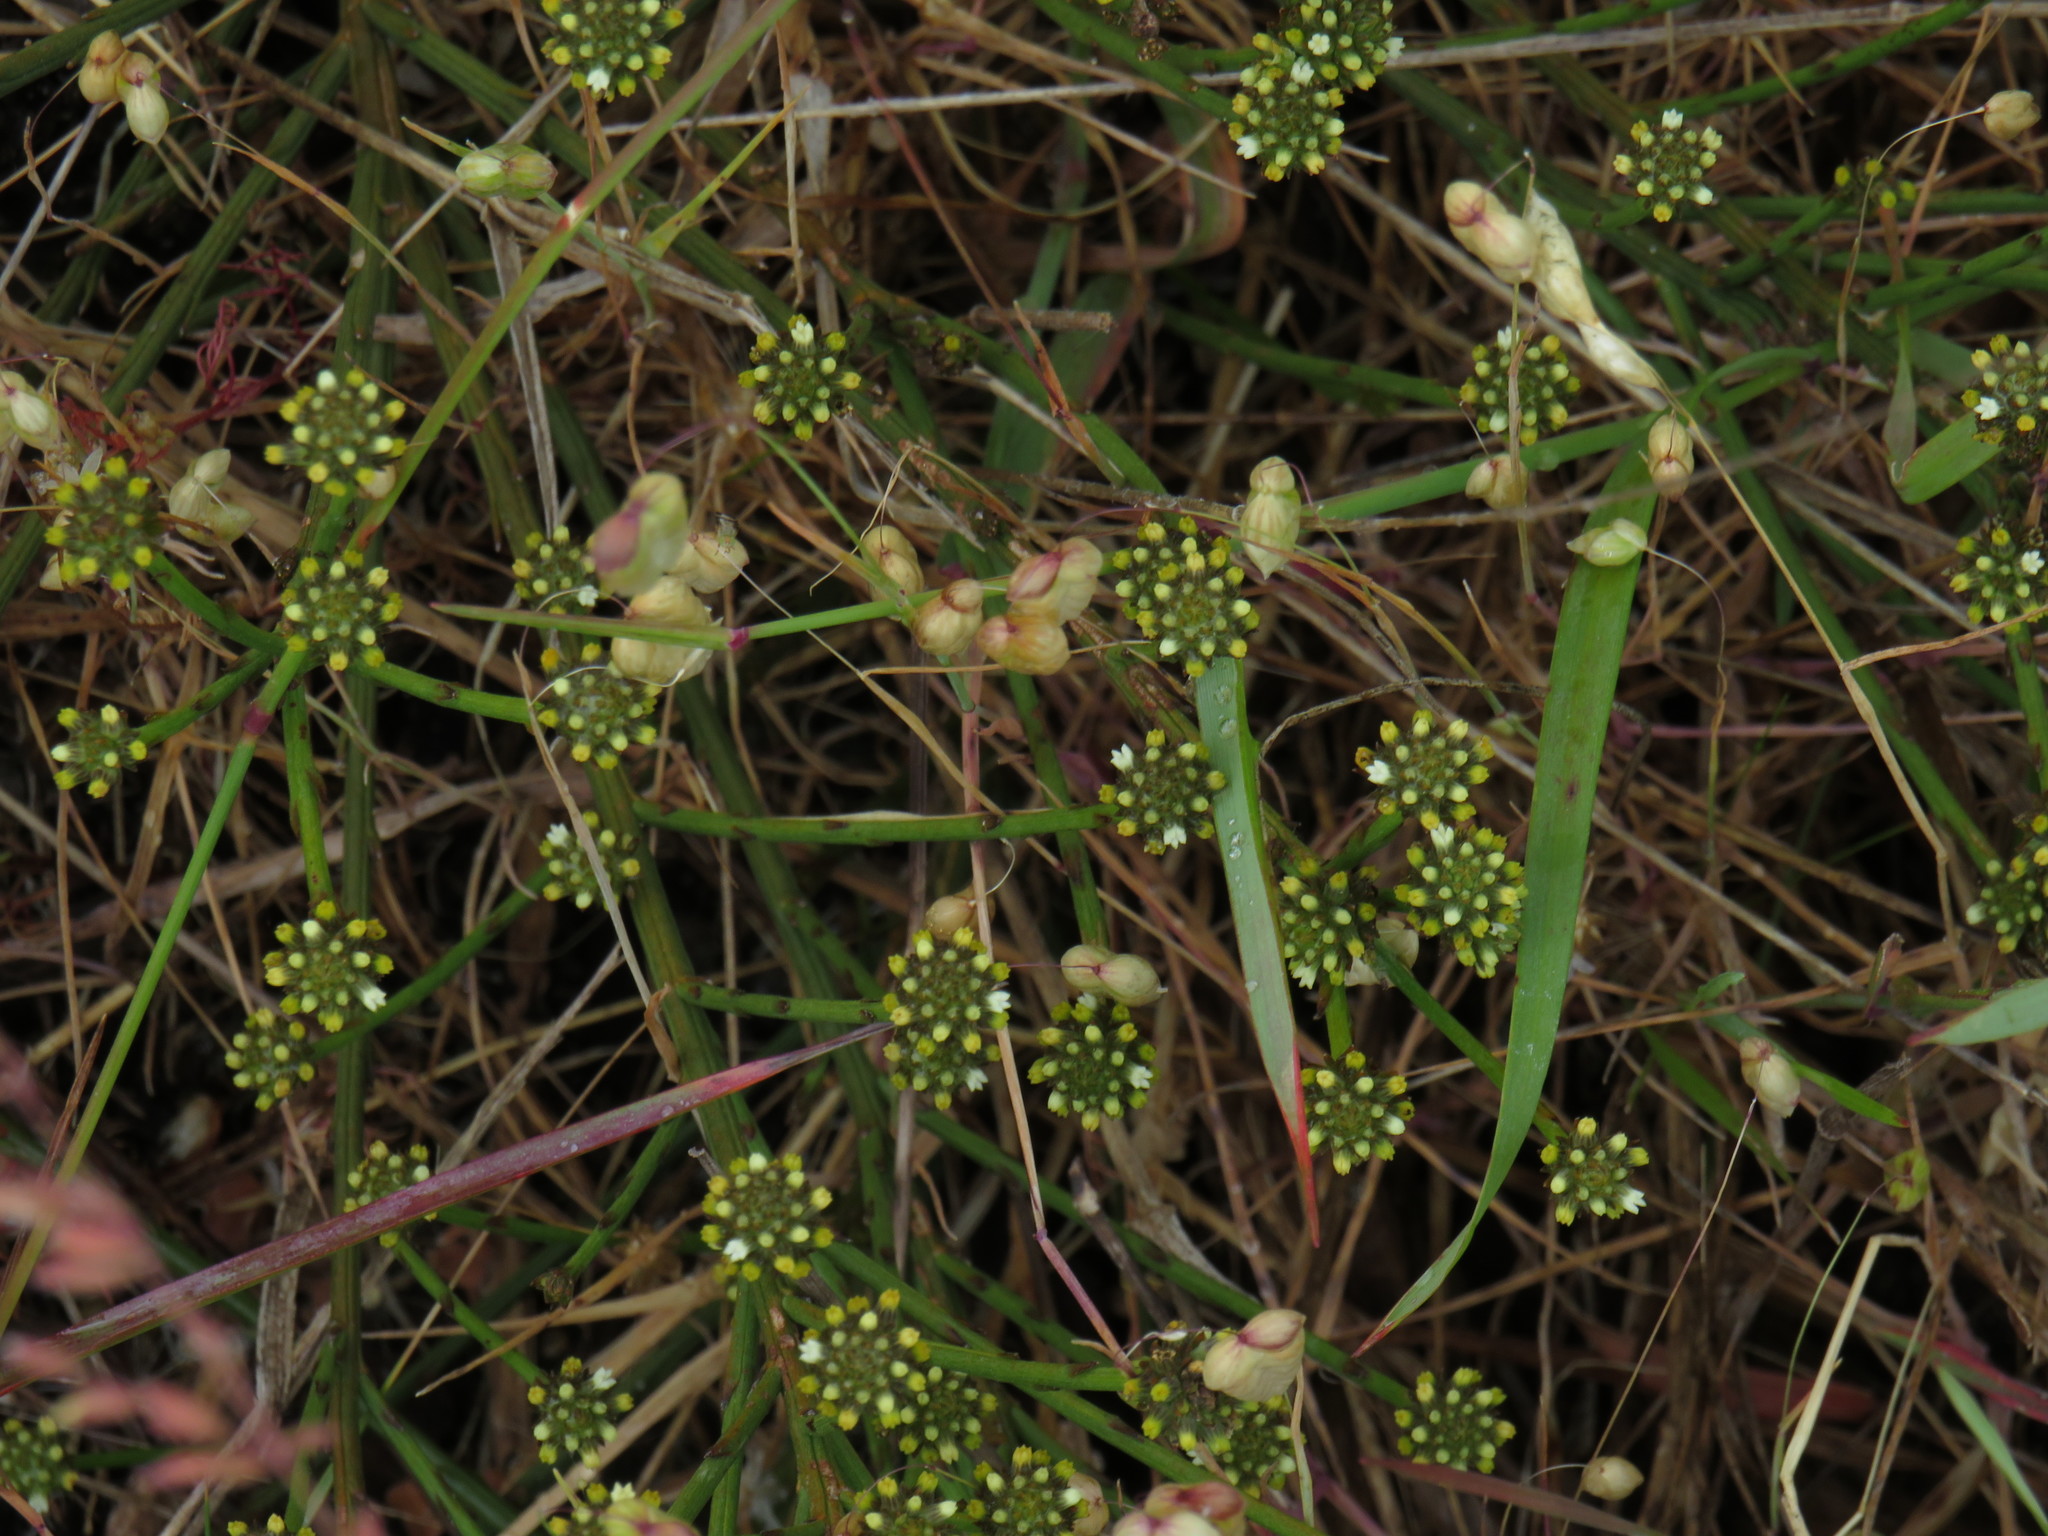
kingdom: Plantae
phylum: Tracheophyta
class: Magnoliopsida
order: Santalales
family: Thesiaceae
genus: Thesium
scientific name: Thesium aggregatum
